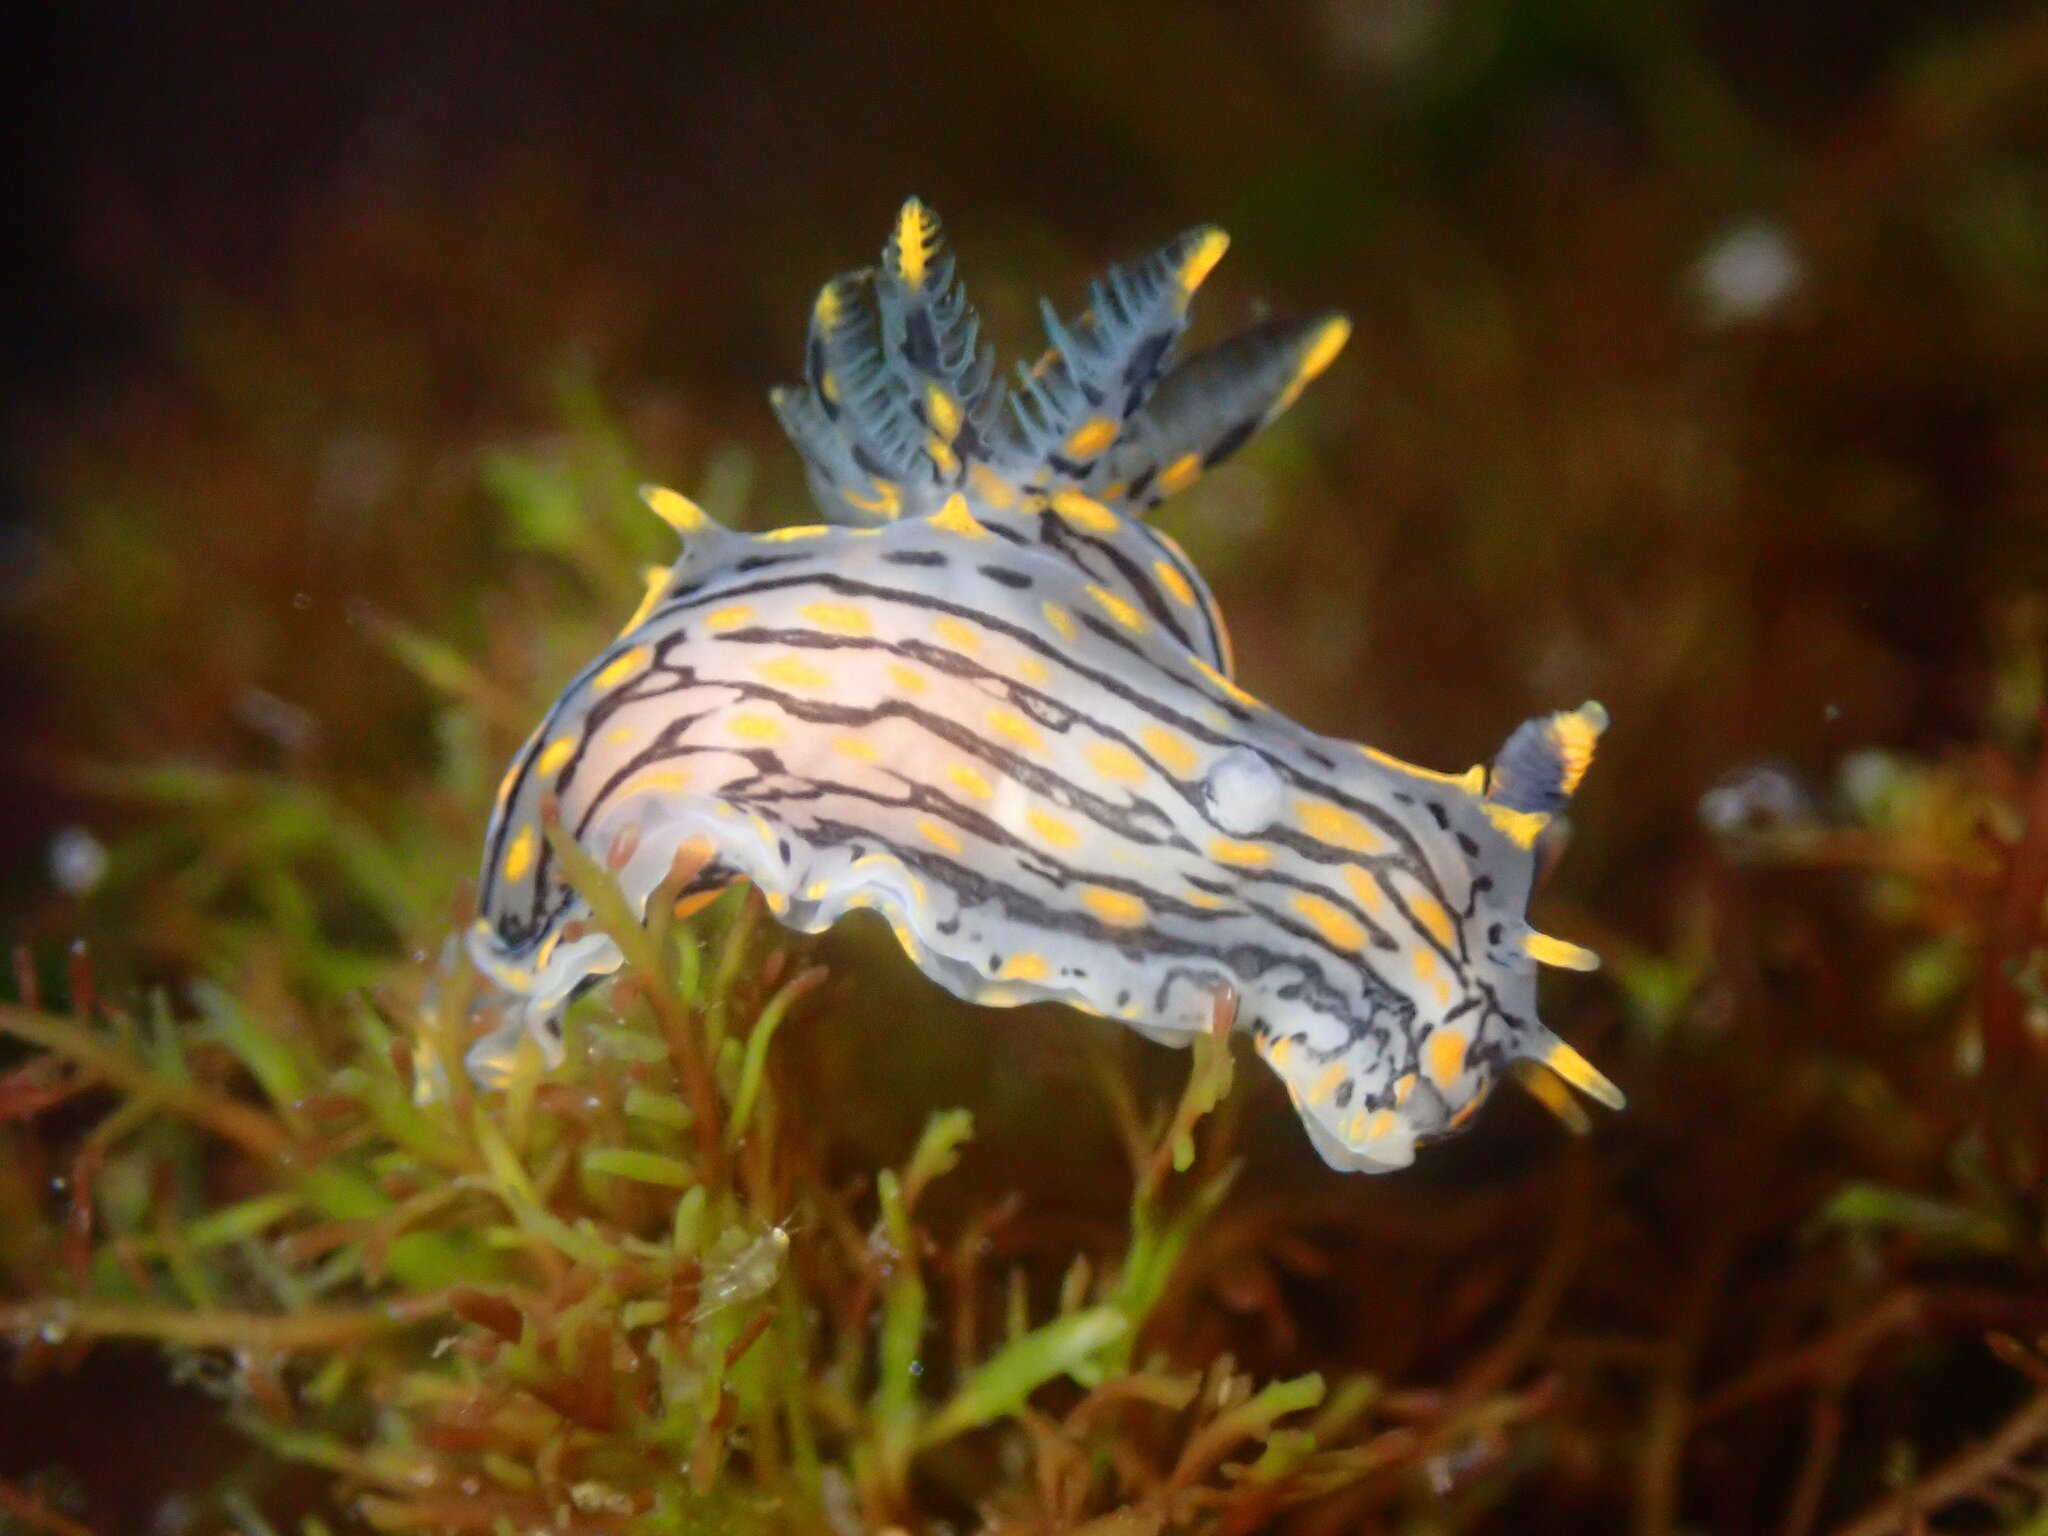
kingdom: Animalia
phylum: Mollusca
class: Gastropoda
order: Nudibranchia
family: Polyceridae
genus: Polycera
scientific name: Polycera atra
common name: Orange-spike polycera
